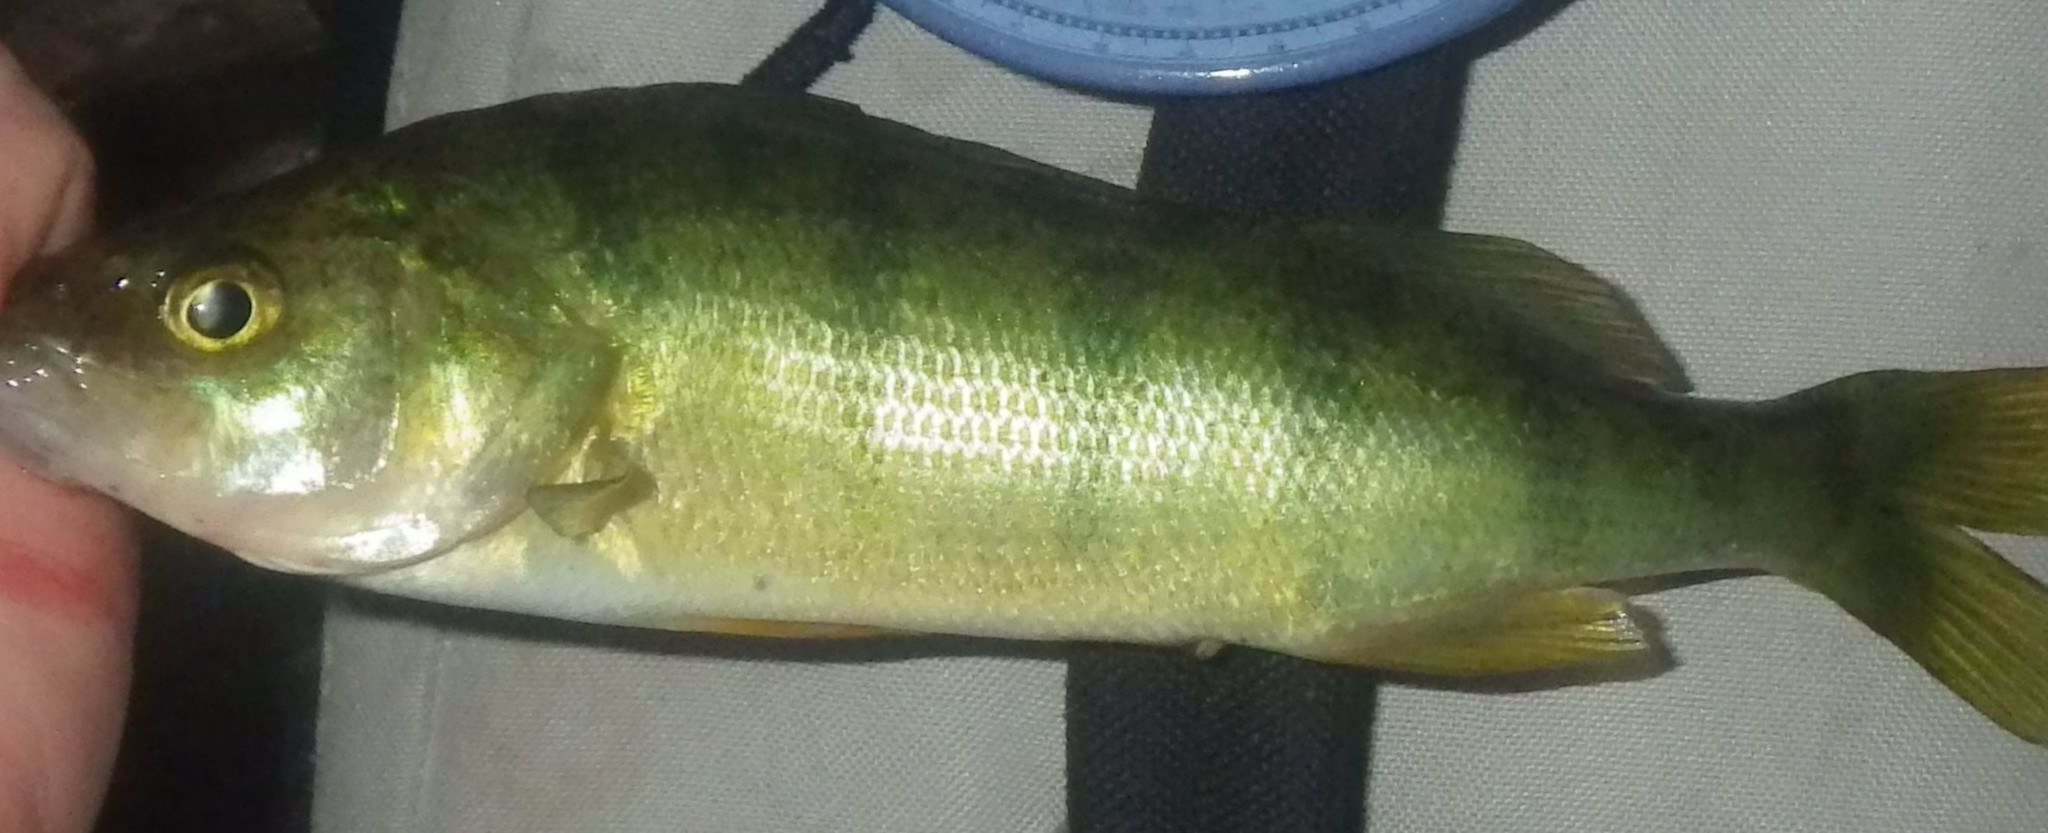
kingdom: Animalia
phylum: Chordata
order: Perciformes
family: Percidae
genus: Perca
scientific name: Perca flavescens
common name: Yellow perch
